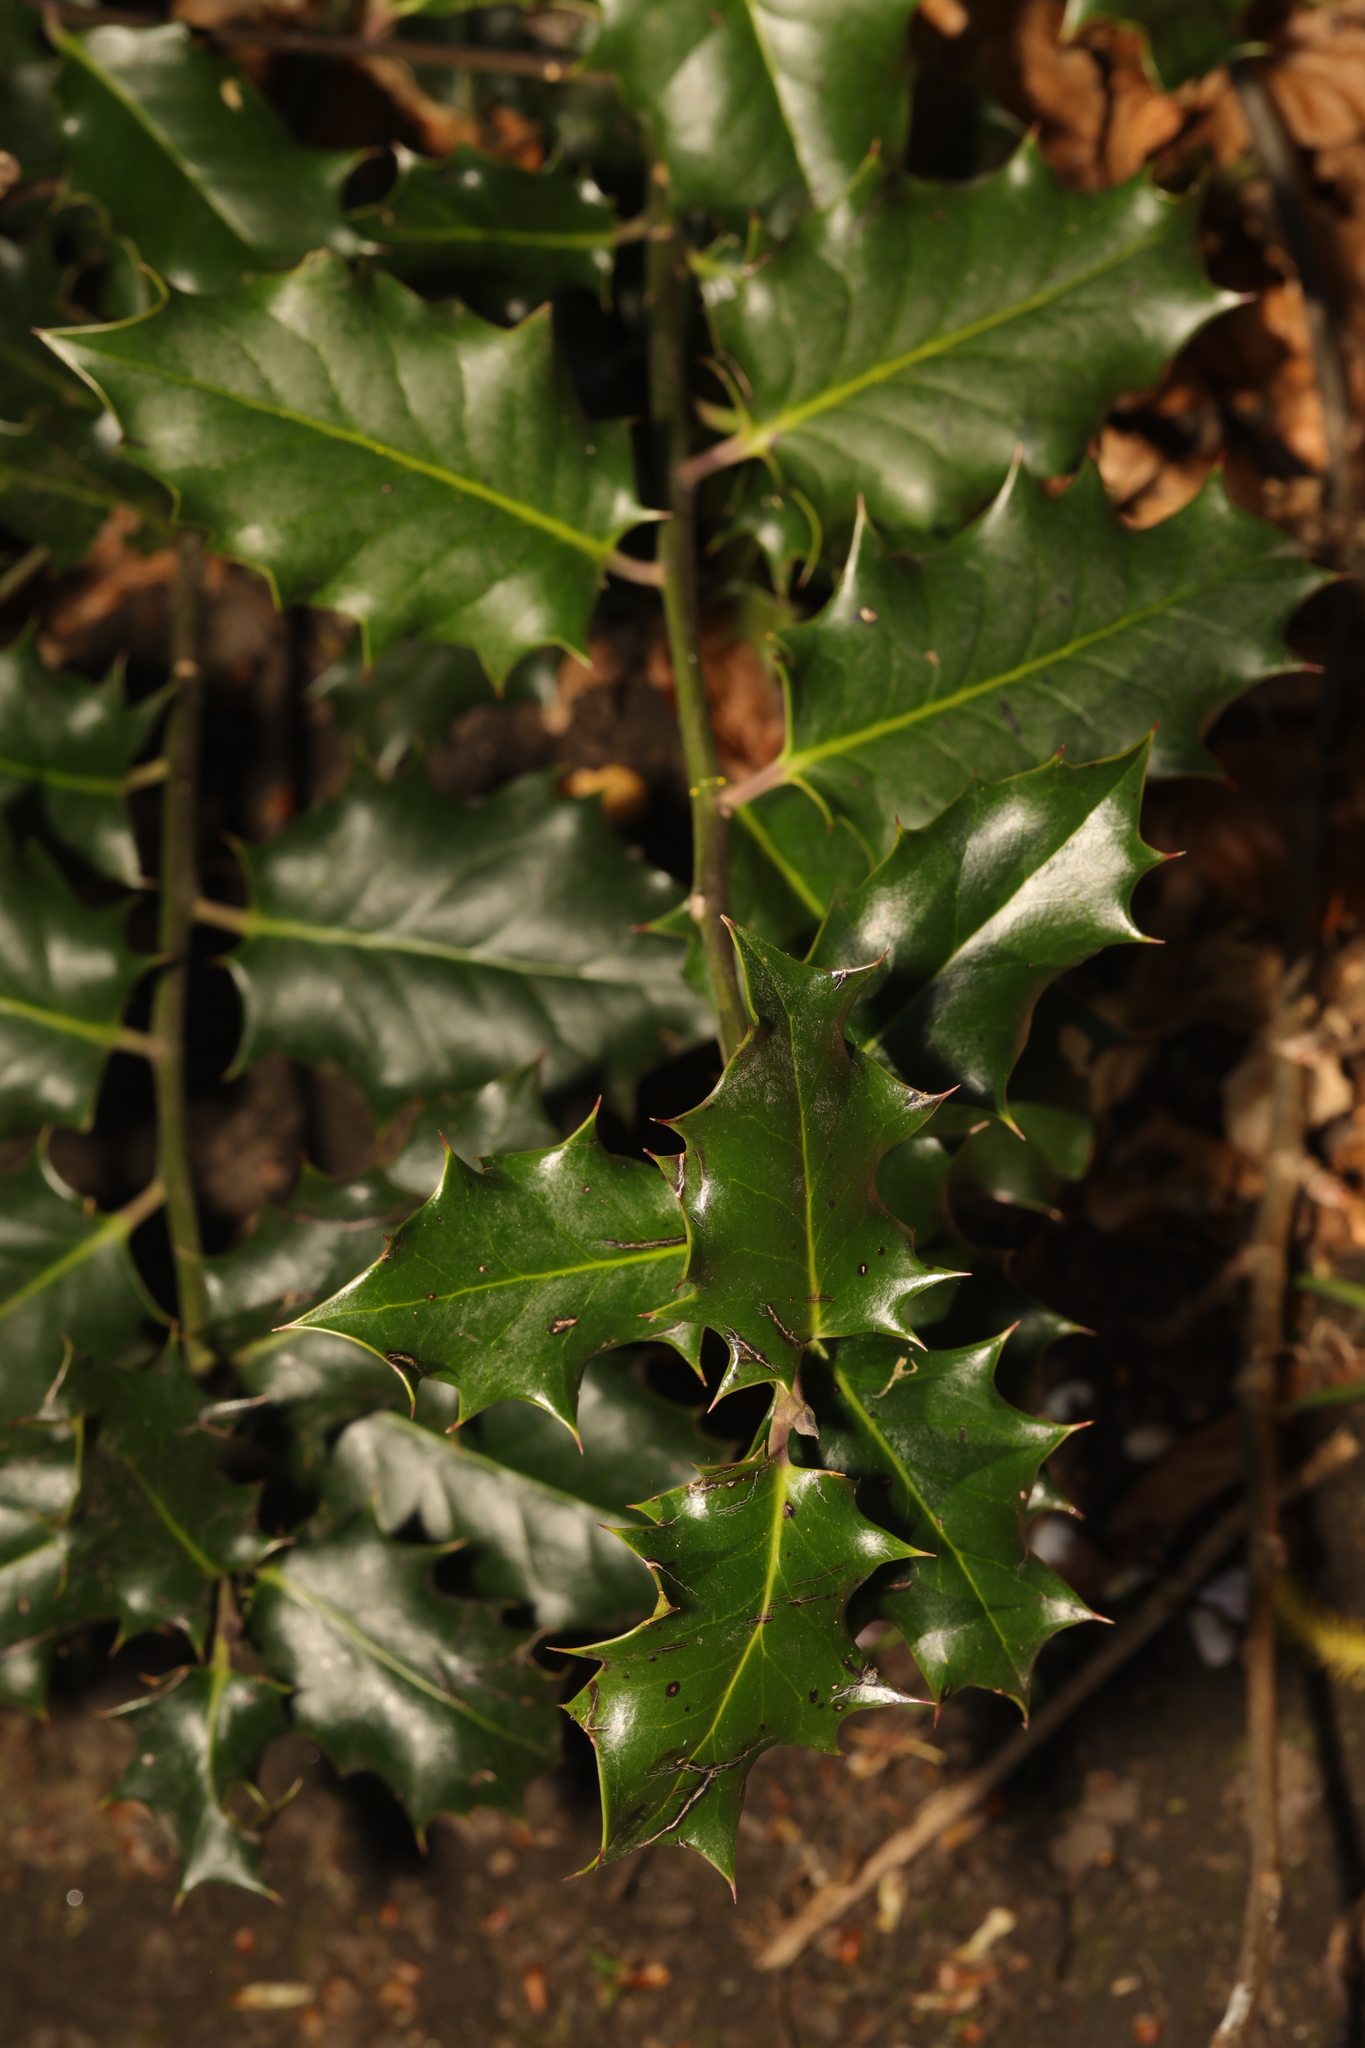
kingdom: Plantae
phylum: Tracheophyta
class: Magnoliopsida
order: Aquifoliales
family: Aquifoliaceae
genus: Ilex
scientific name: Ilex aquifolium
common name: English holly
